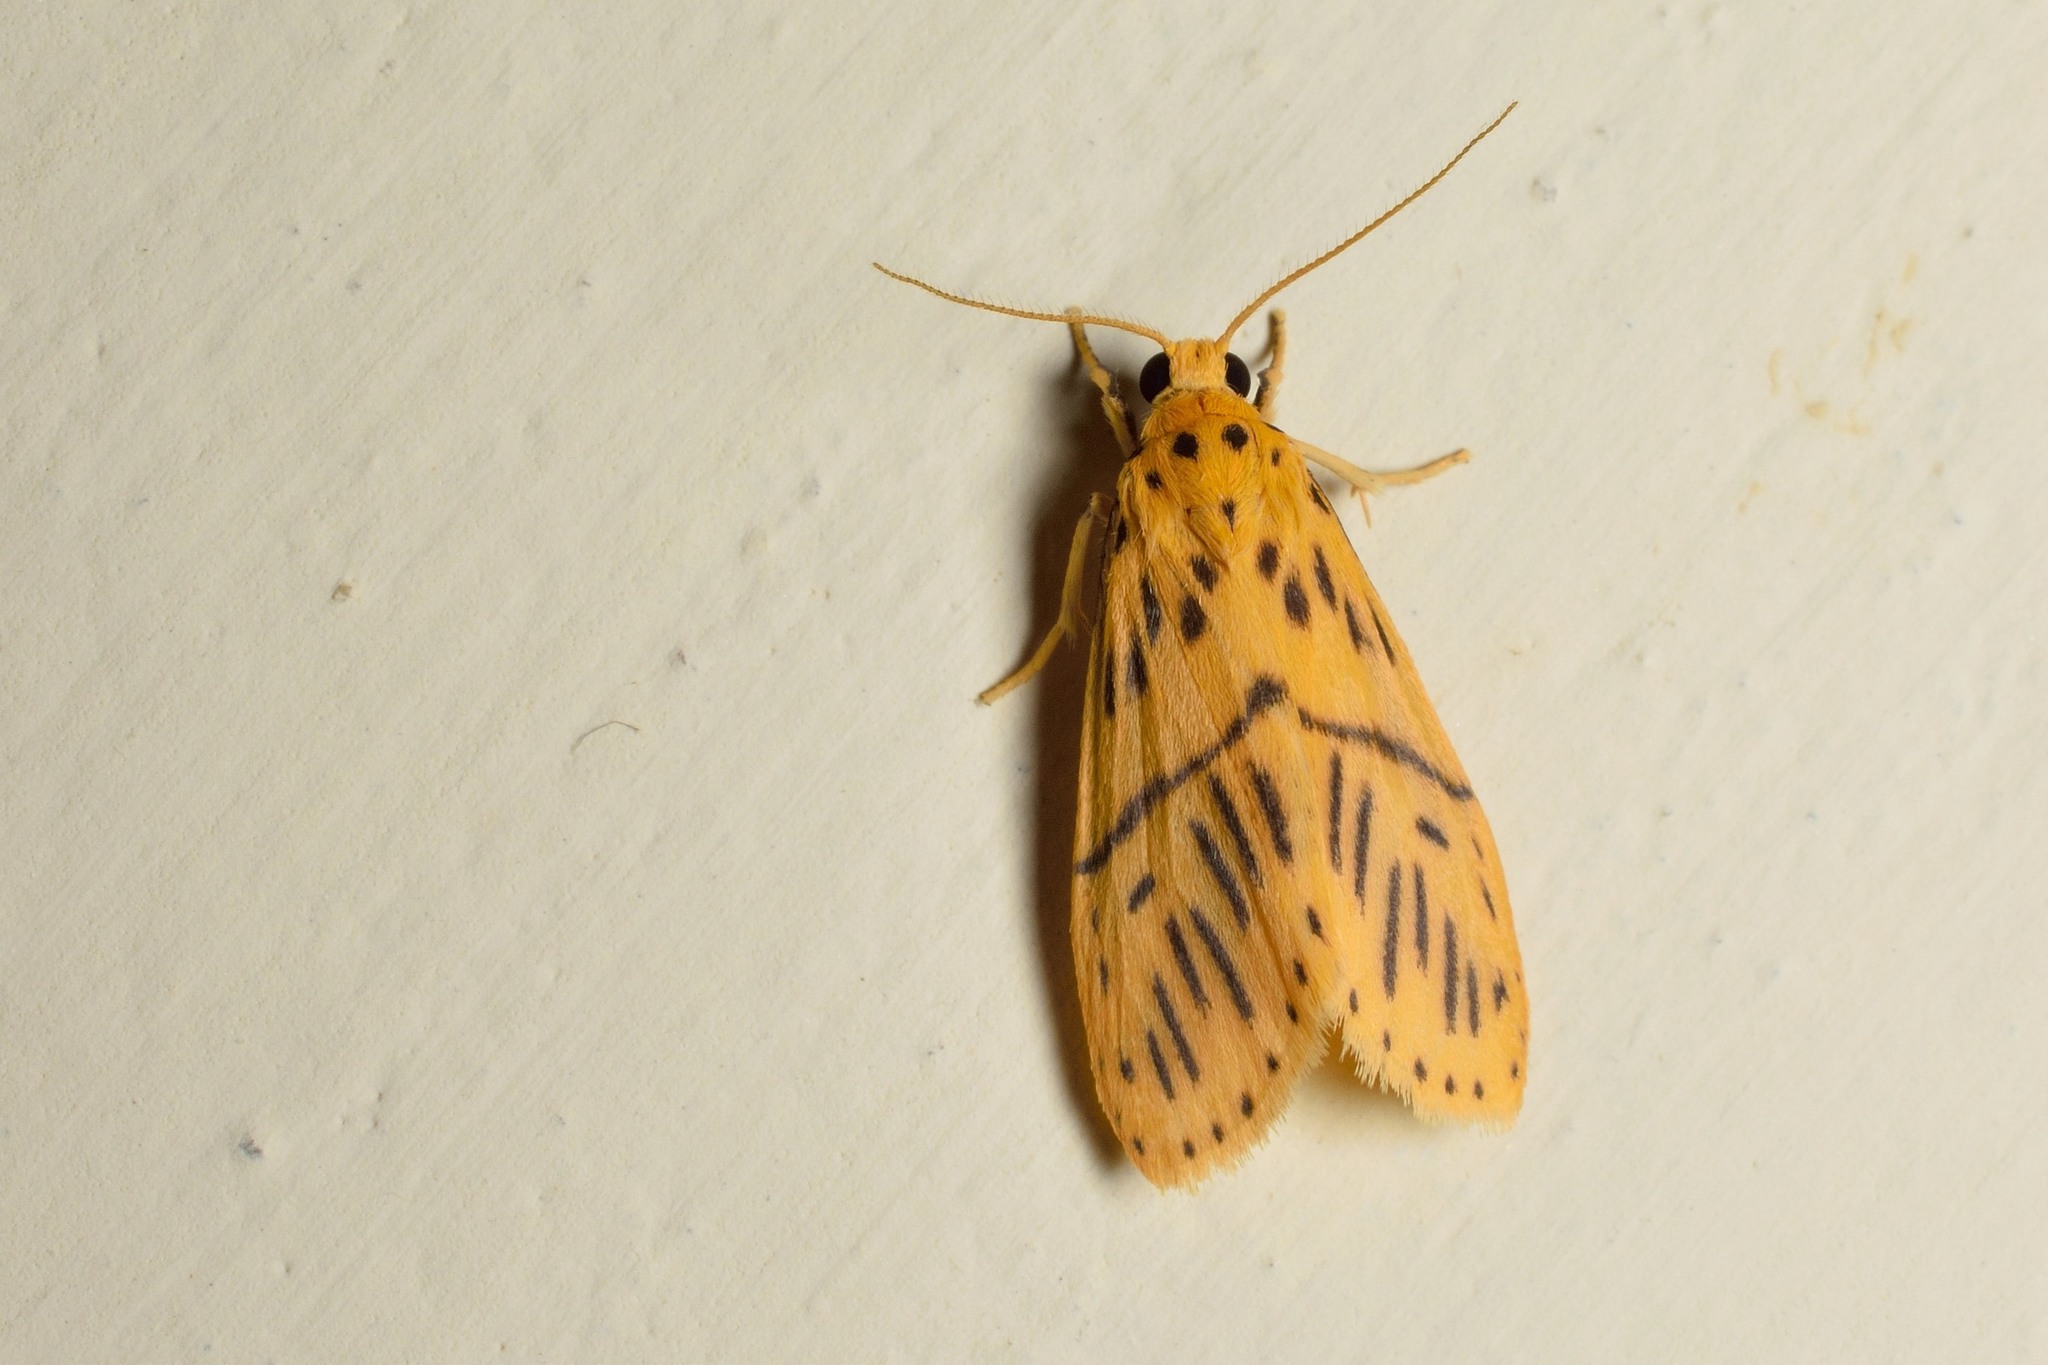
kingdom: Animalia
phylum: Arthropoda
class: Insecta
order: Lepidoptera
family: Erebidae
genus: Miltochrista
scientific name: Miltochrista strigipennis
